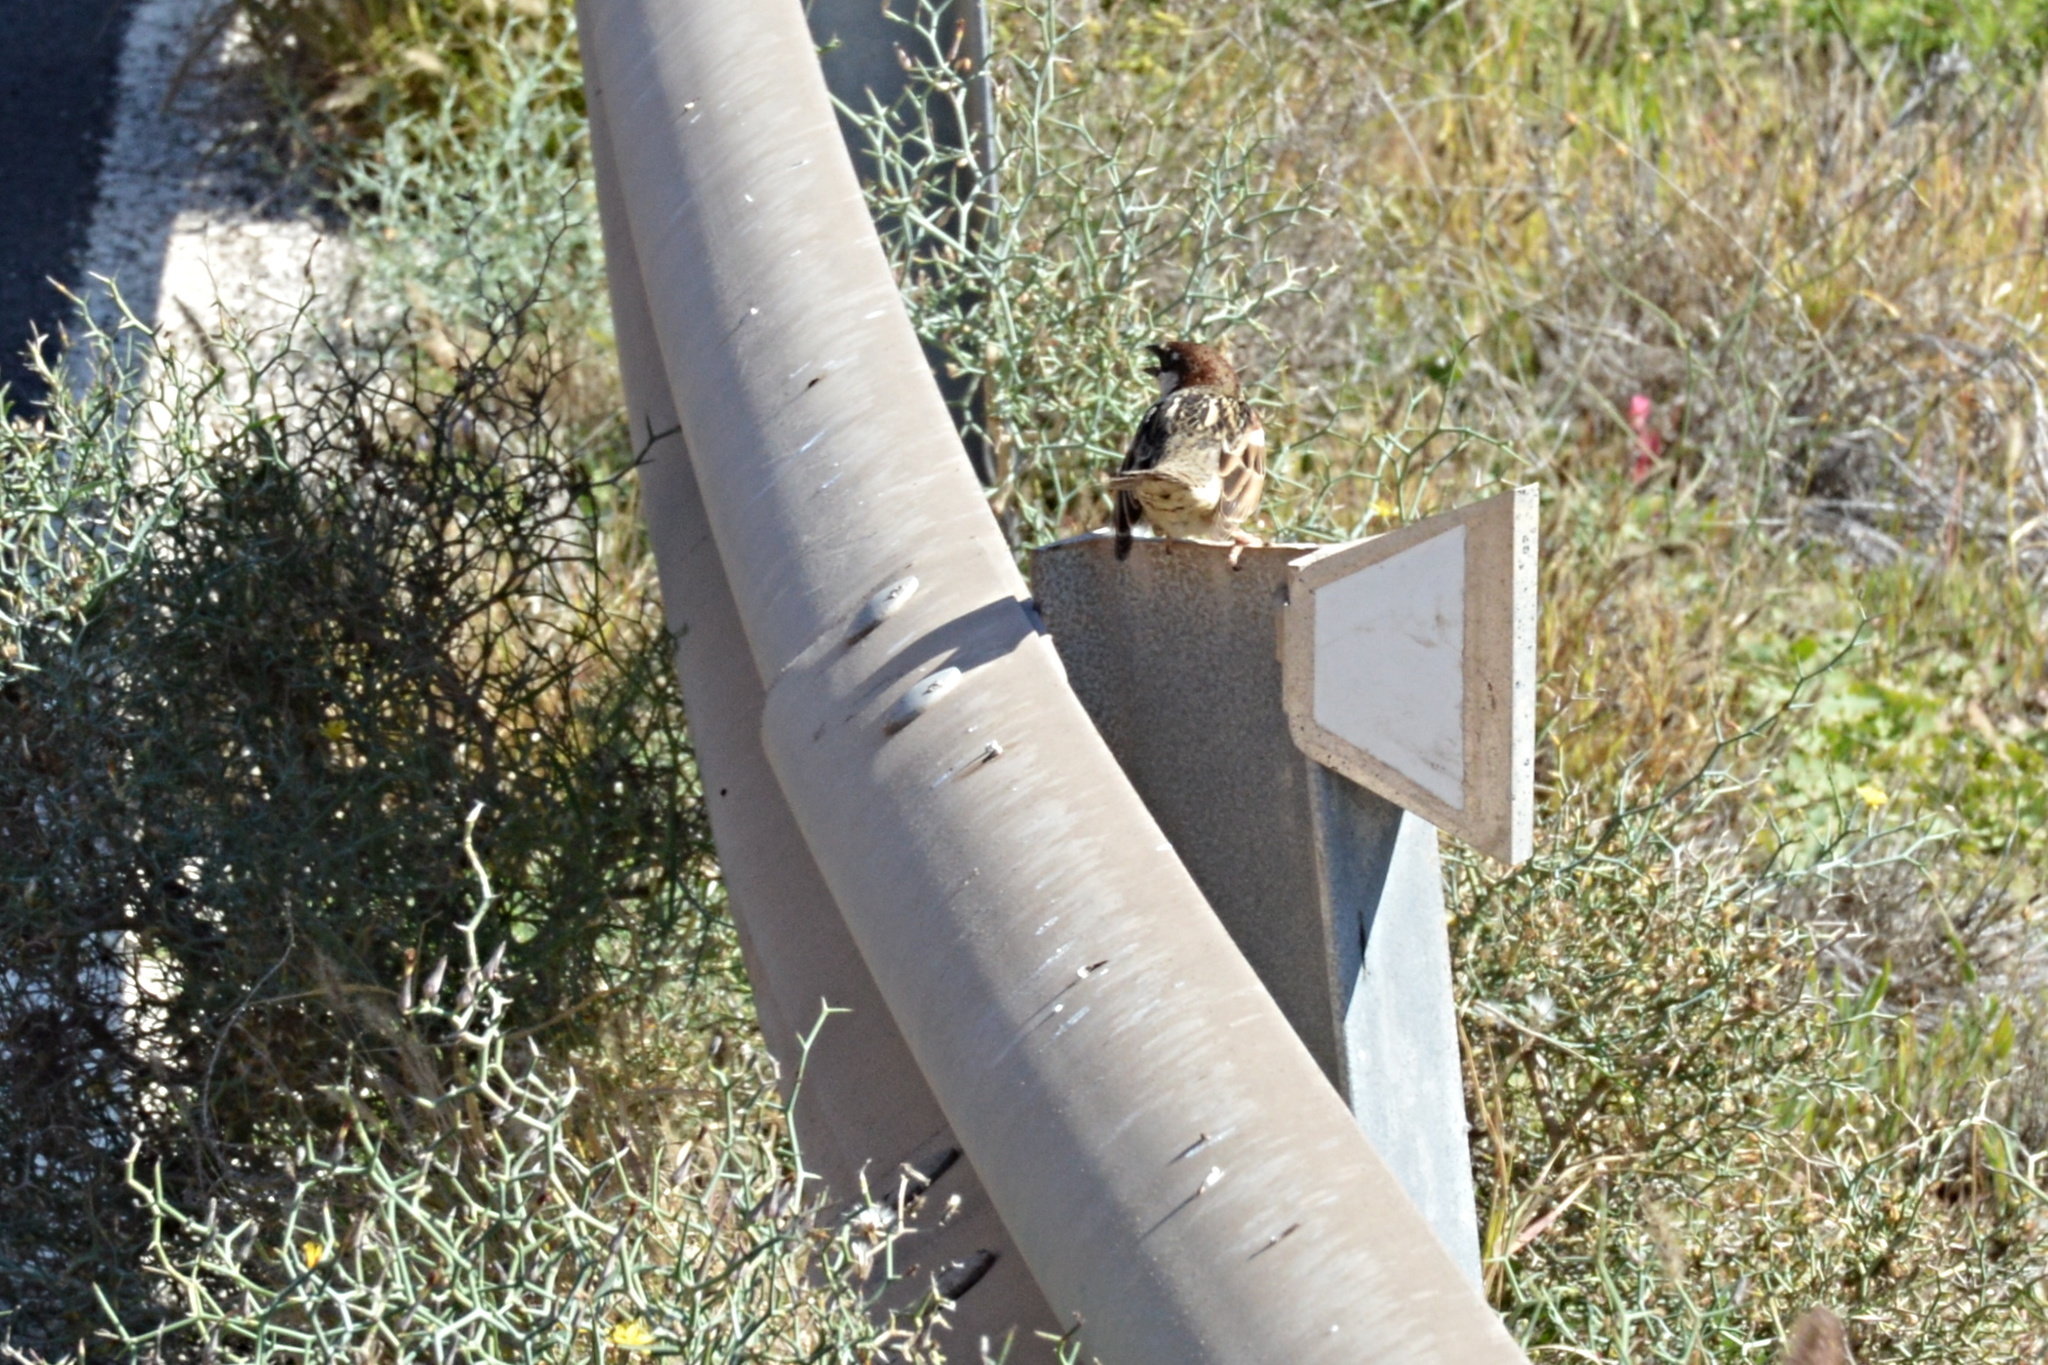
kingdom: Animalia
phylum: Chordata
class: Aves
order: Passeriformes
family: Passeridae
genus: Passer
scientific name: Passer hispaniolensis
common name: Spanish sparrow
